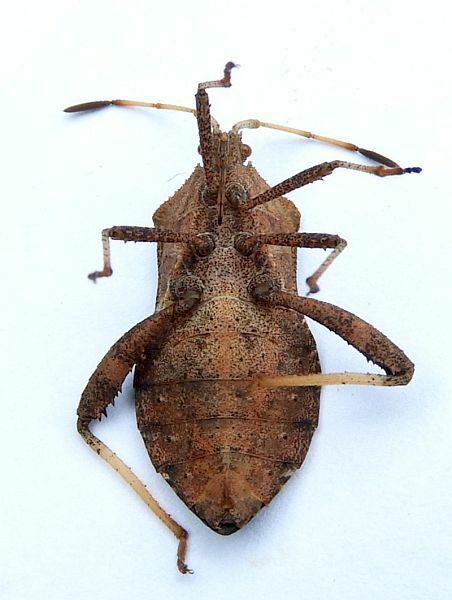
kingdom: Animalia
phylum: Arthropoda
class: Insecta
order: Hemiptera
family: Coreidae
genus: Euthochtha
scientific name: Euthochtha galeator
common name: Helmeted squash bug
